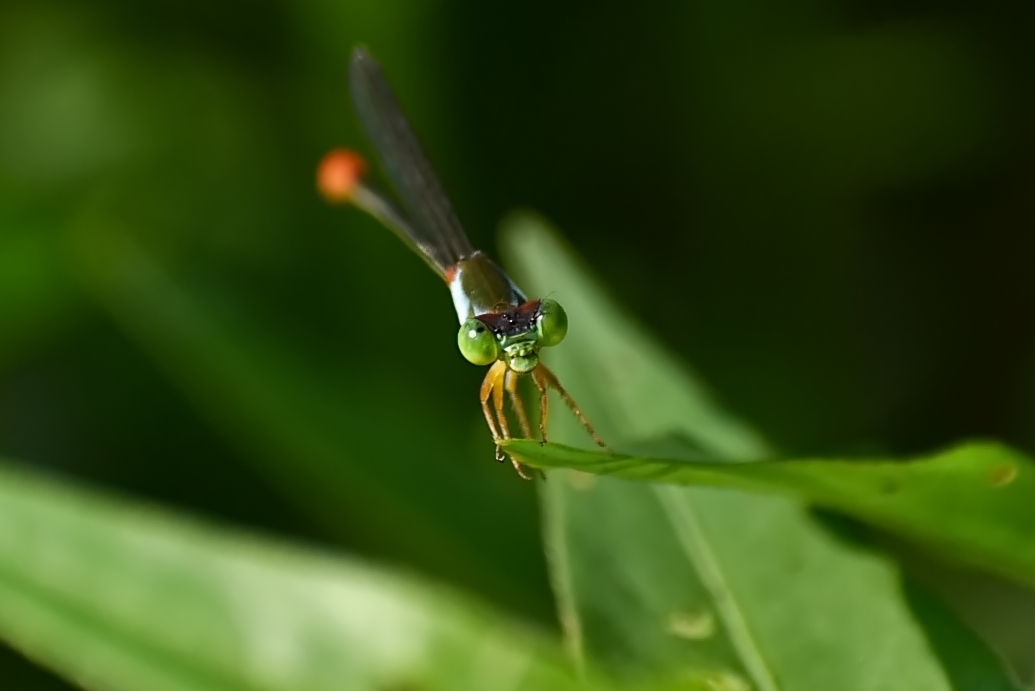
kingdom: Animalia
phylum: Arthropoda
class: Insecta
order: Odonata
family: Coenagrionidae
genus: Ceriagrion
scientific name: Ceriagrion cerinorubellum
